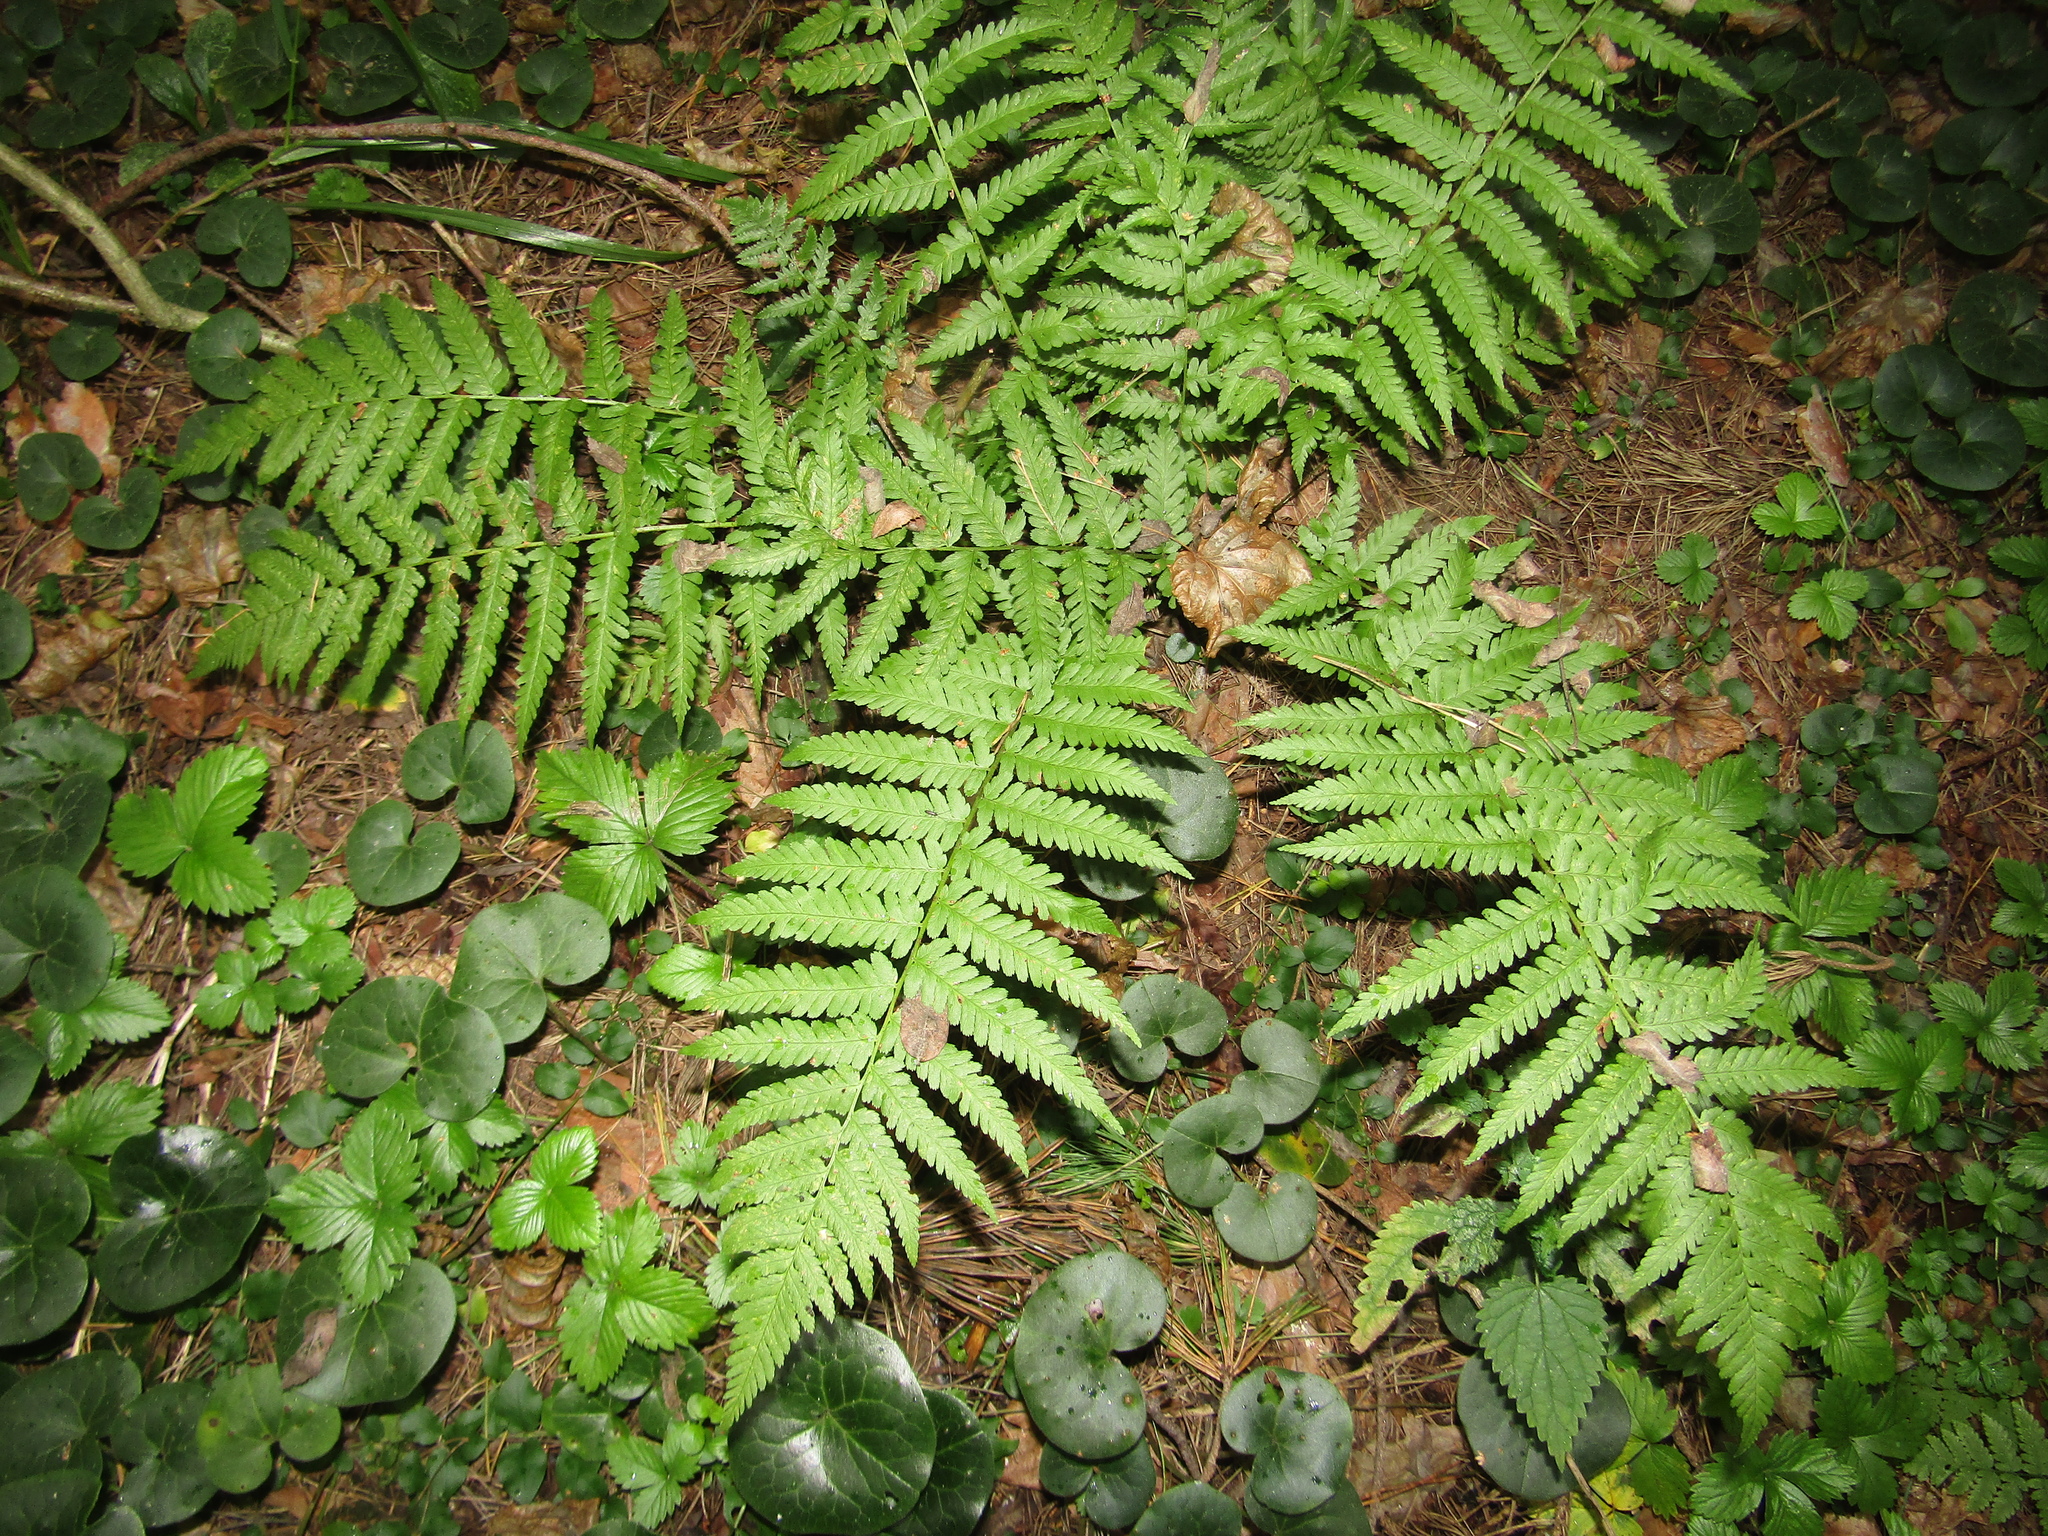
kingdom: Plantae
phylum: Tracheophyta
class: Polypodiopsida
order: Polypodiales
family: Dryopteridaceae
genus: Dryopteris
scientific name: Dryopteris filix-mas
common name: Male fern
